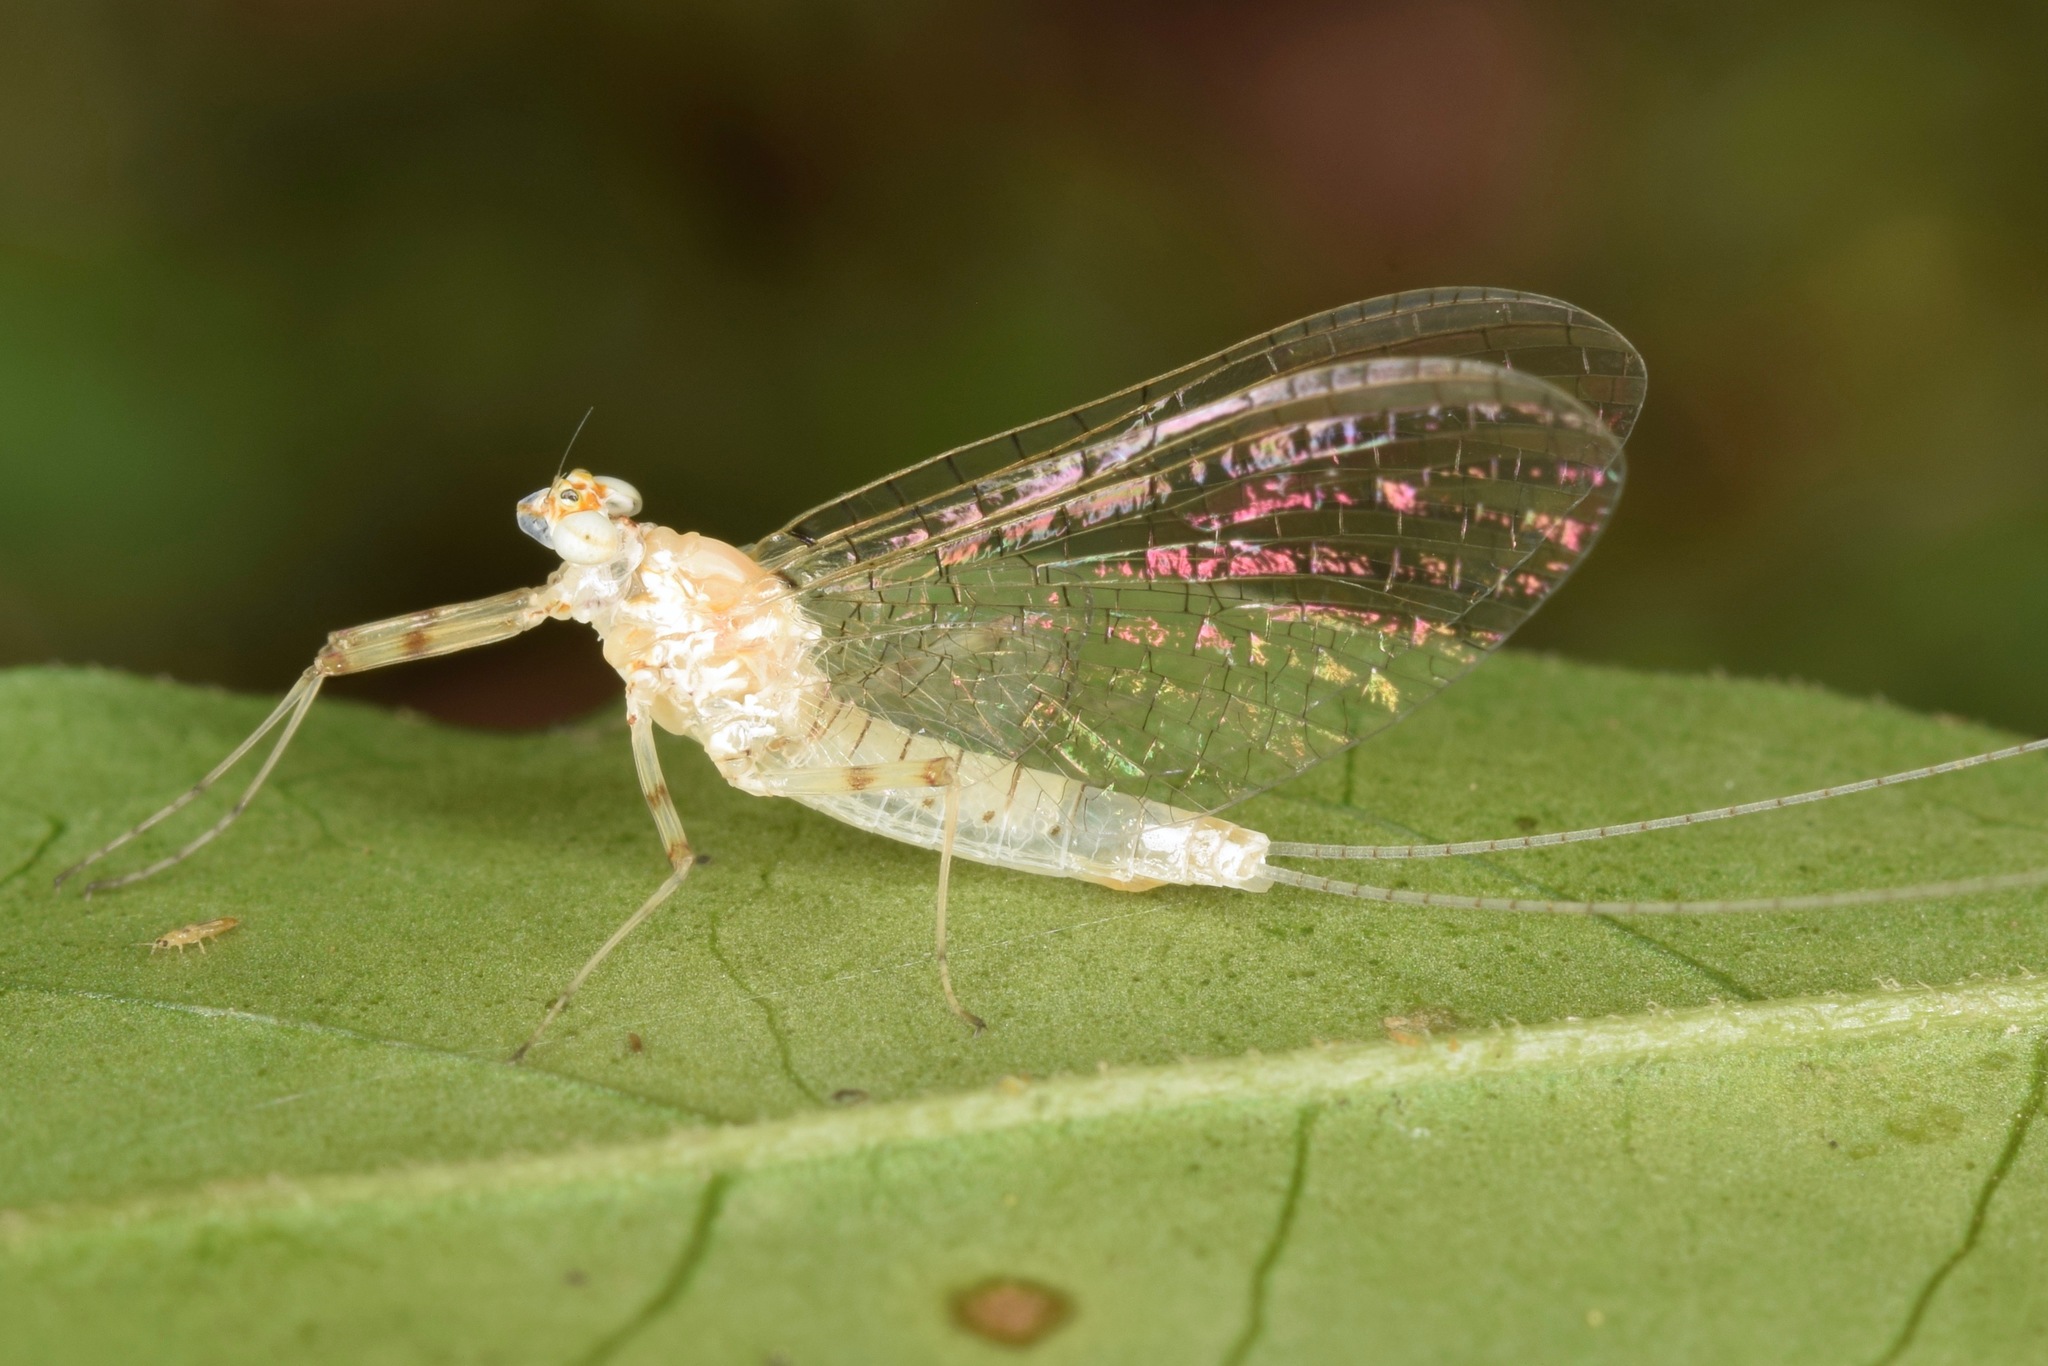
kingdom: Animalia
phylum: Arthropoda
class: Insecta
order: Ephemeroptera
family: Heptageniidae
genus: Maccaffertium
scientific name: Maccaffertium modestum
